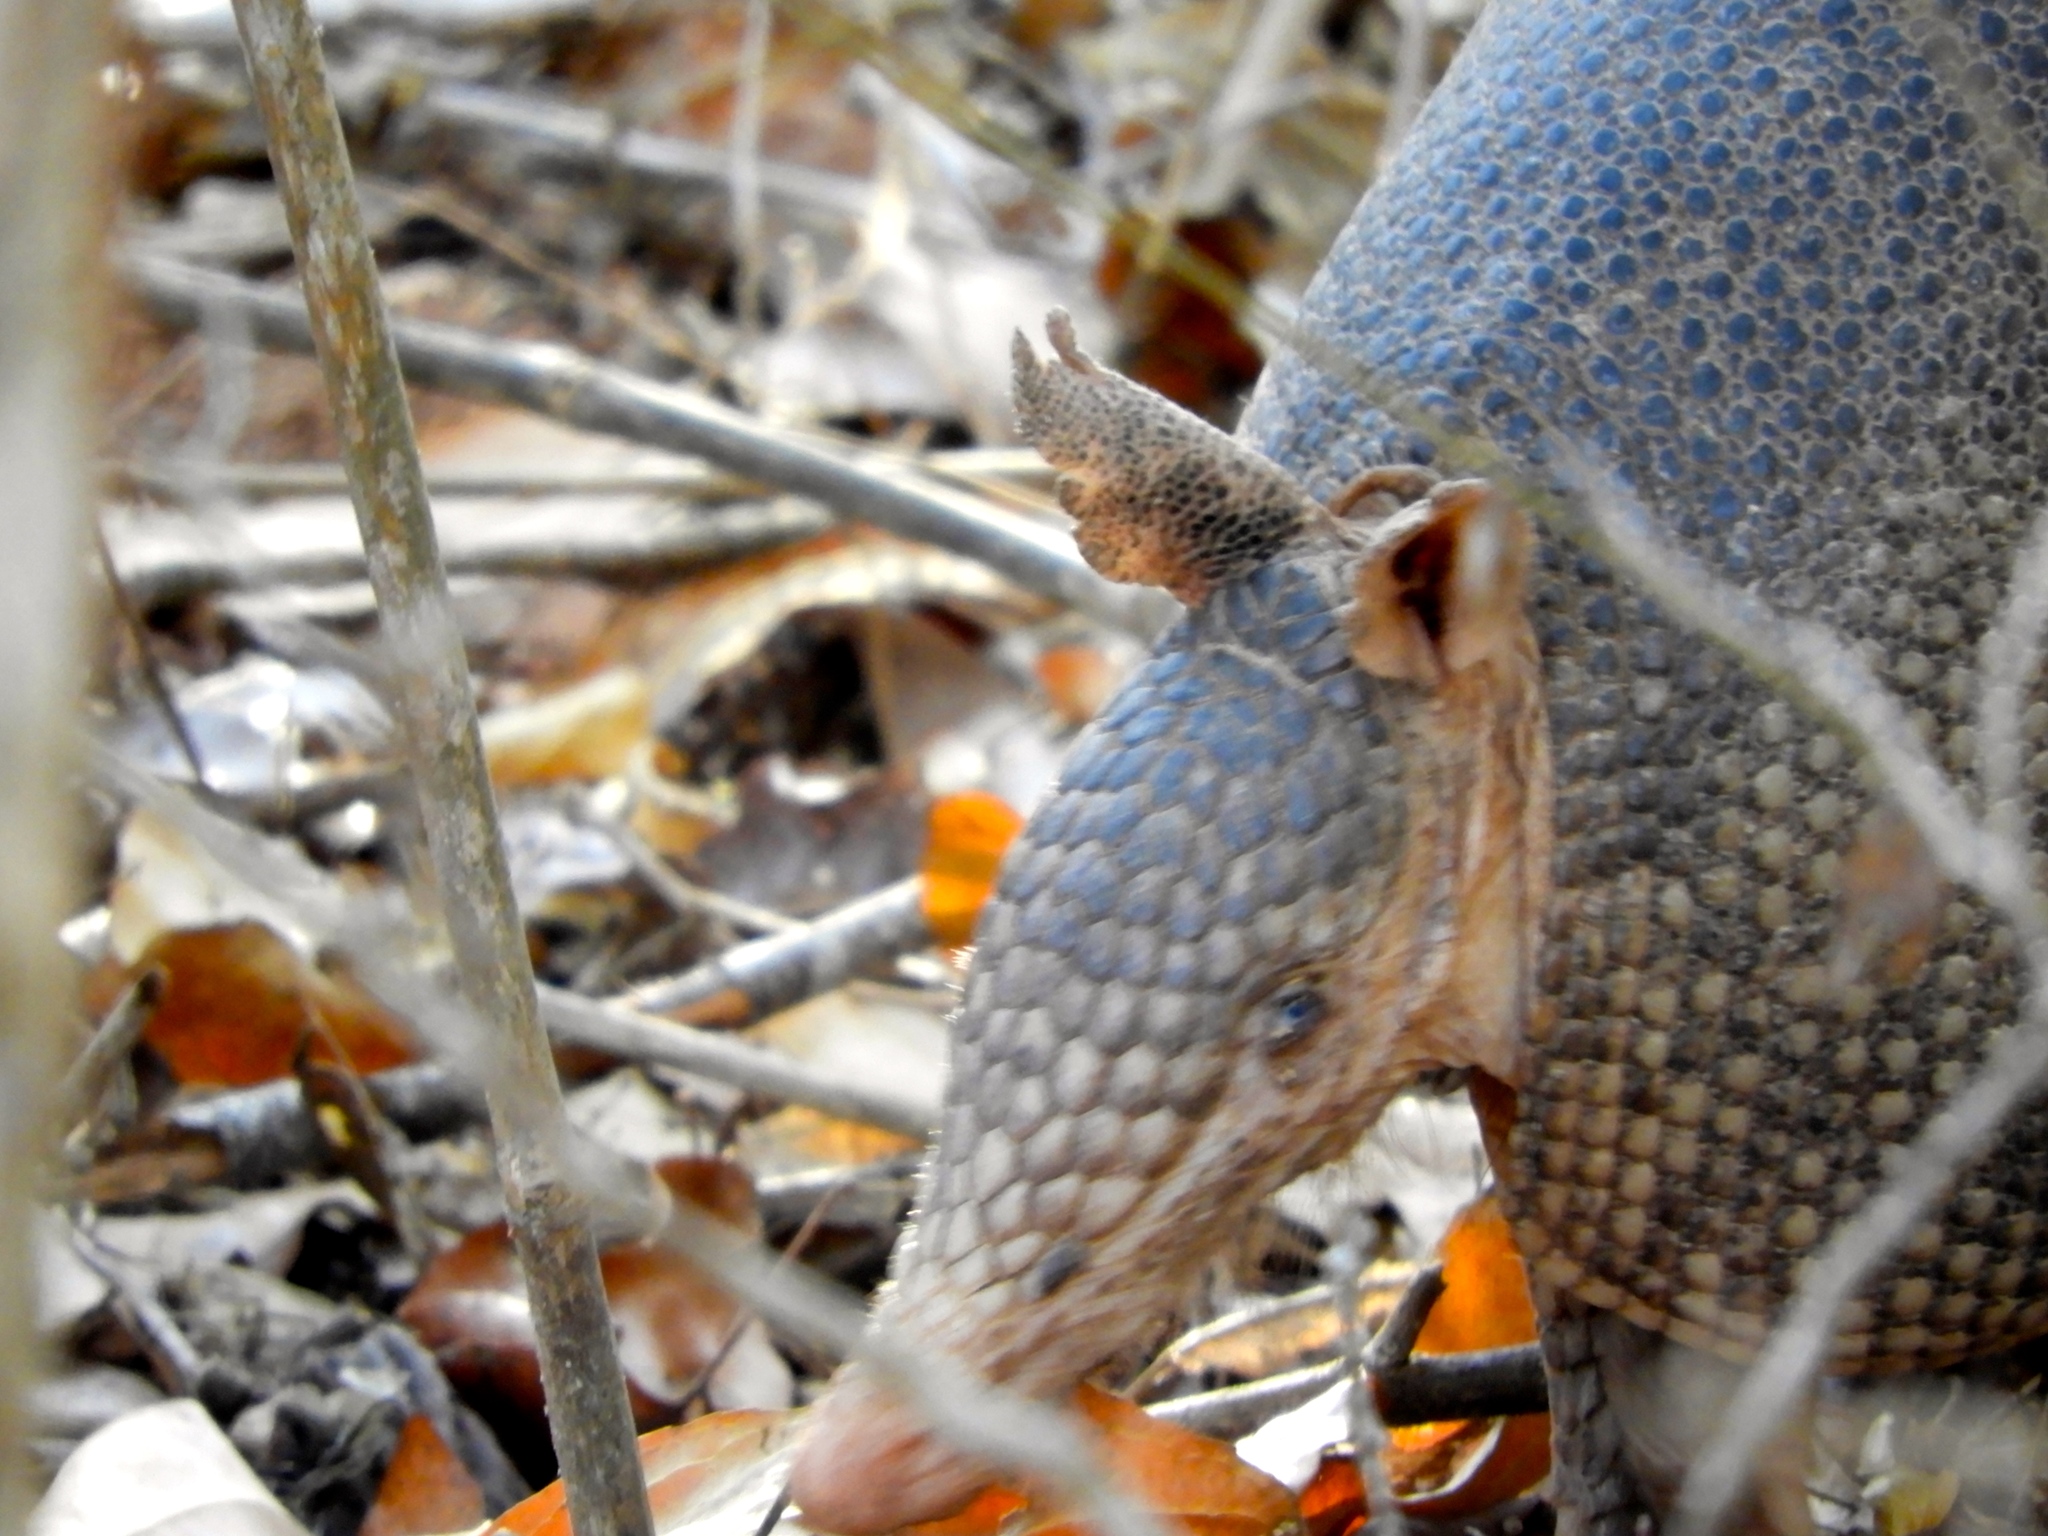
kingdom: Animalia
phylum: Chordata
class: Mammalia
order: Cingulata
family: Dasypodidae
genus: Dasypus
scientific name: Dasypus novemcinctus
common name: Nine-banded armadillo
